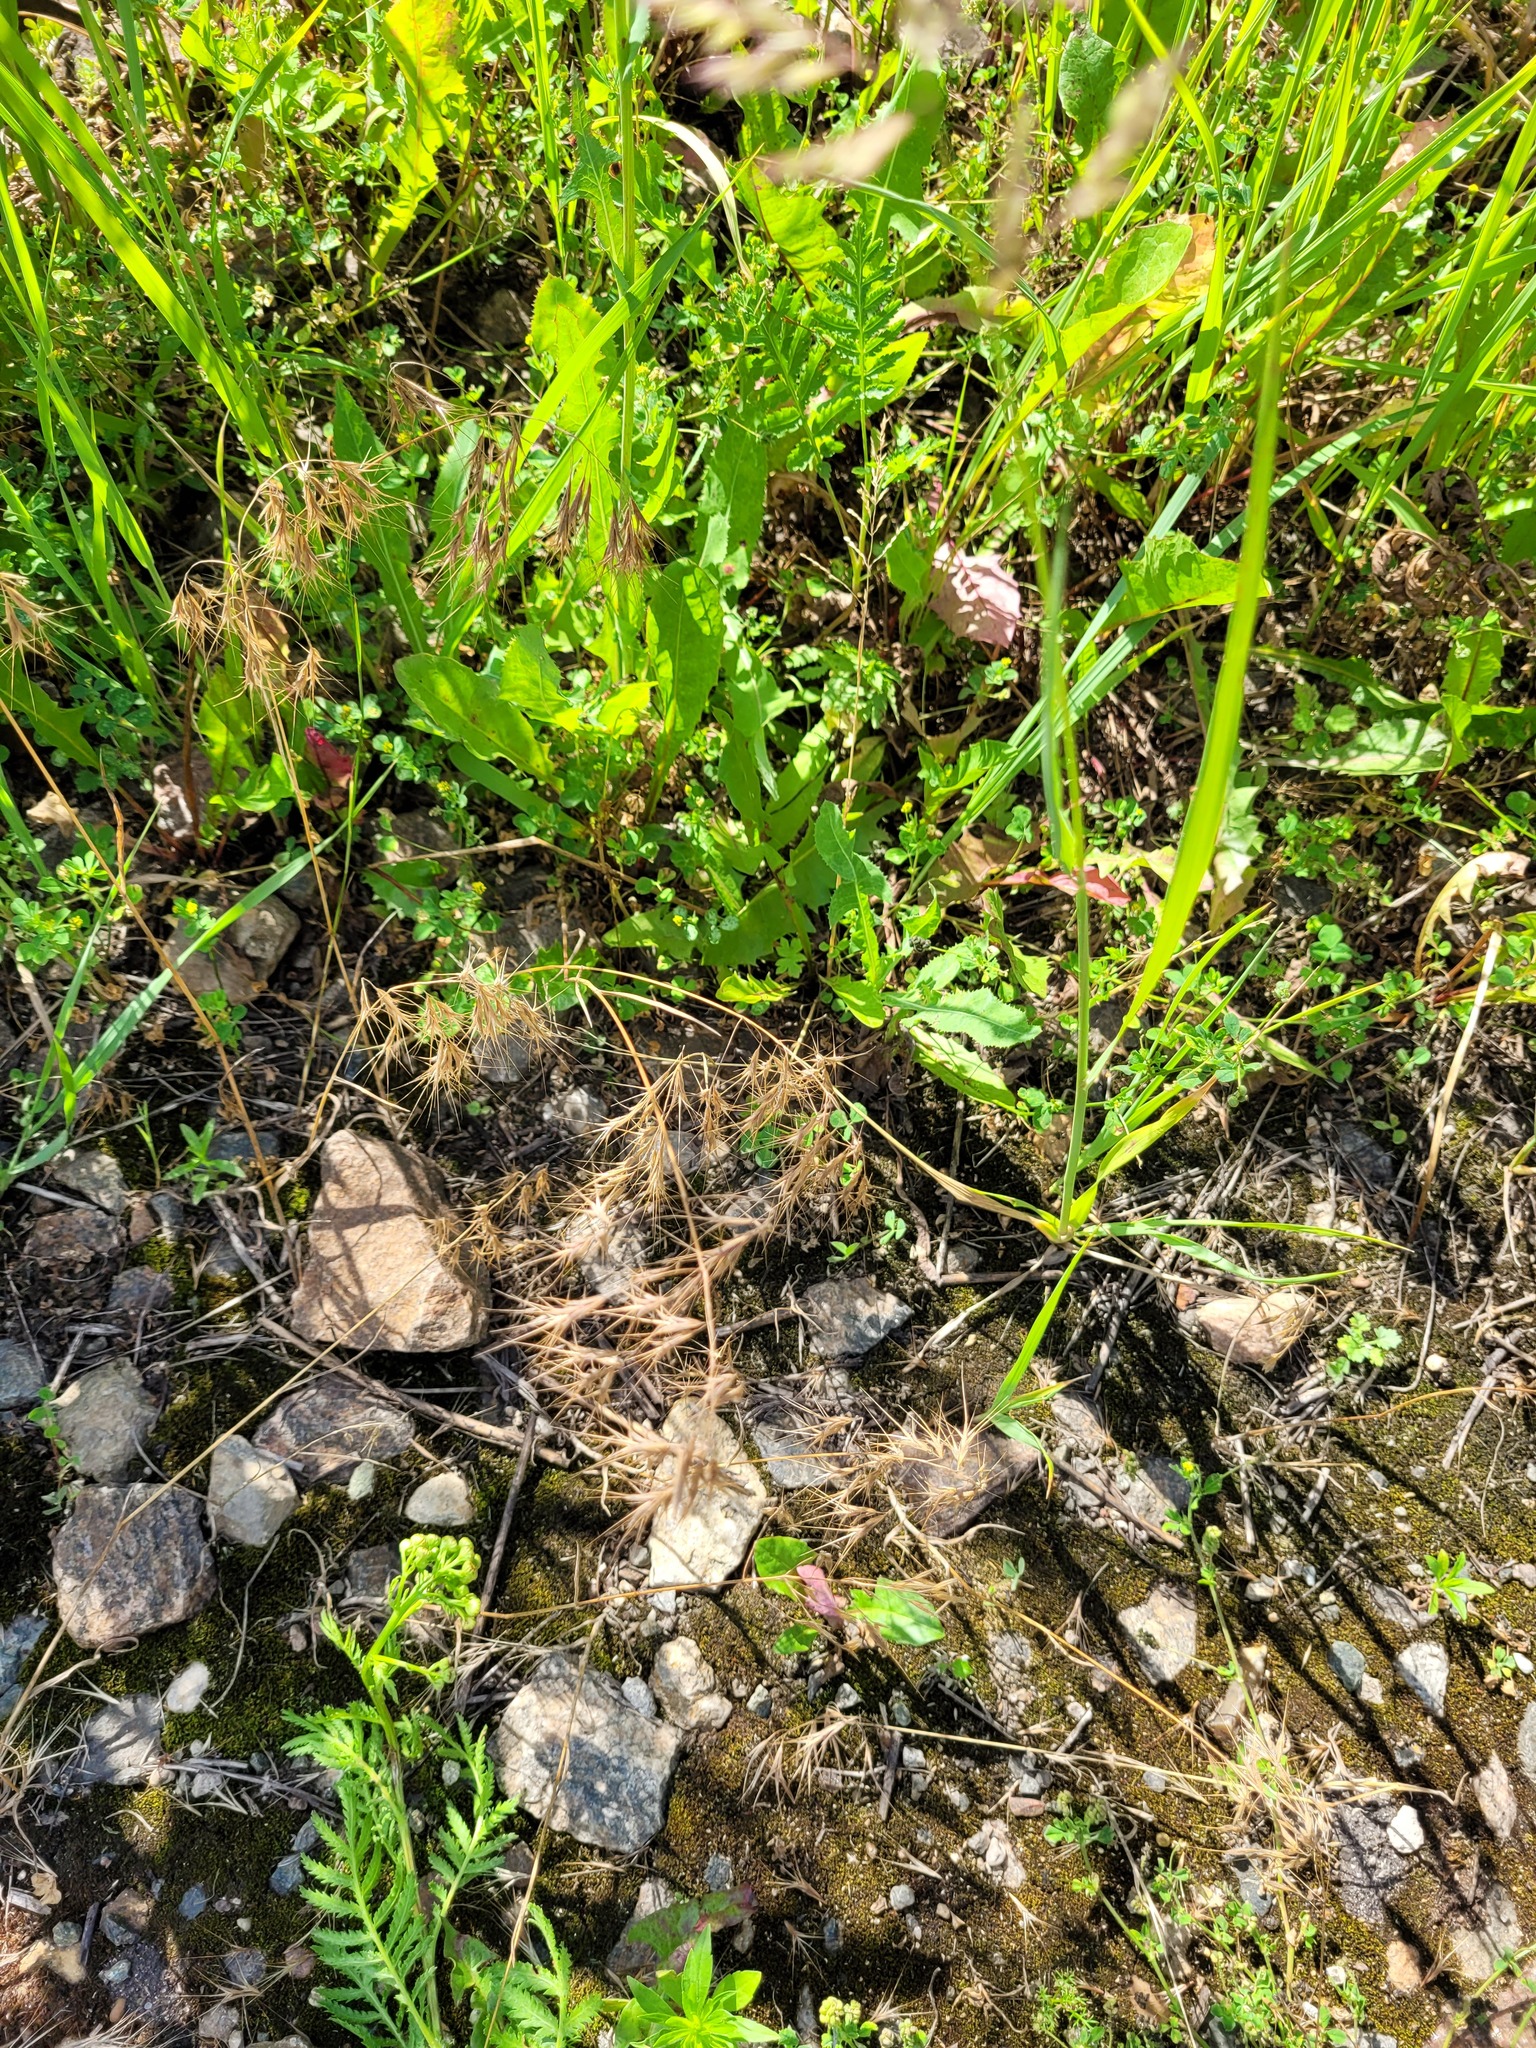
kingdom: Plantae
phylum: Tracheophyta
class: Liliopsida
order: Poales
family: Poaceae
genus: Bromus
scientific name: Bromus tectorum
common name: Cheatgrass
